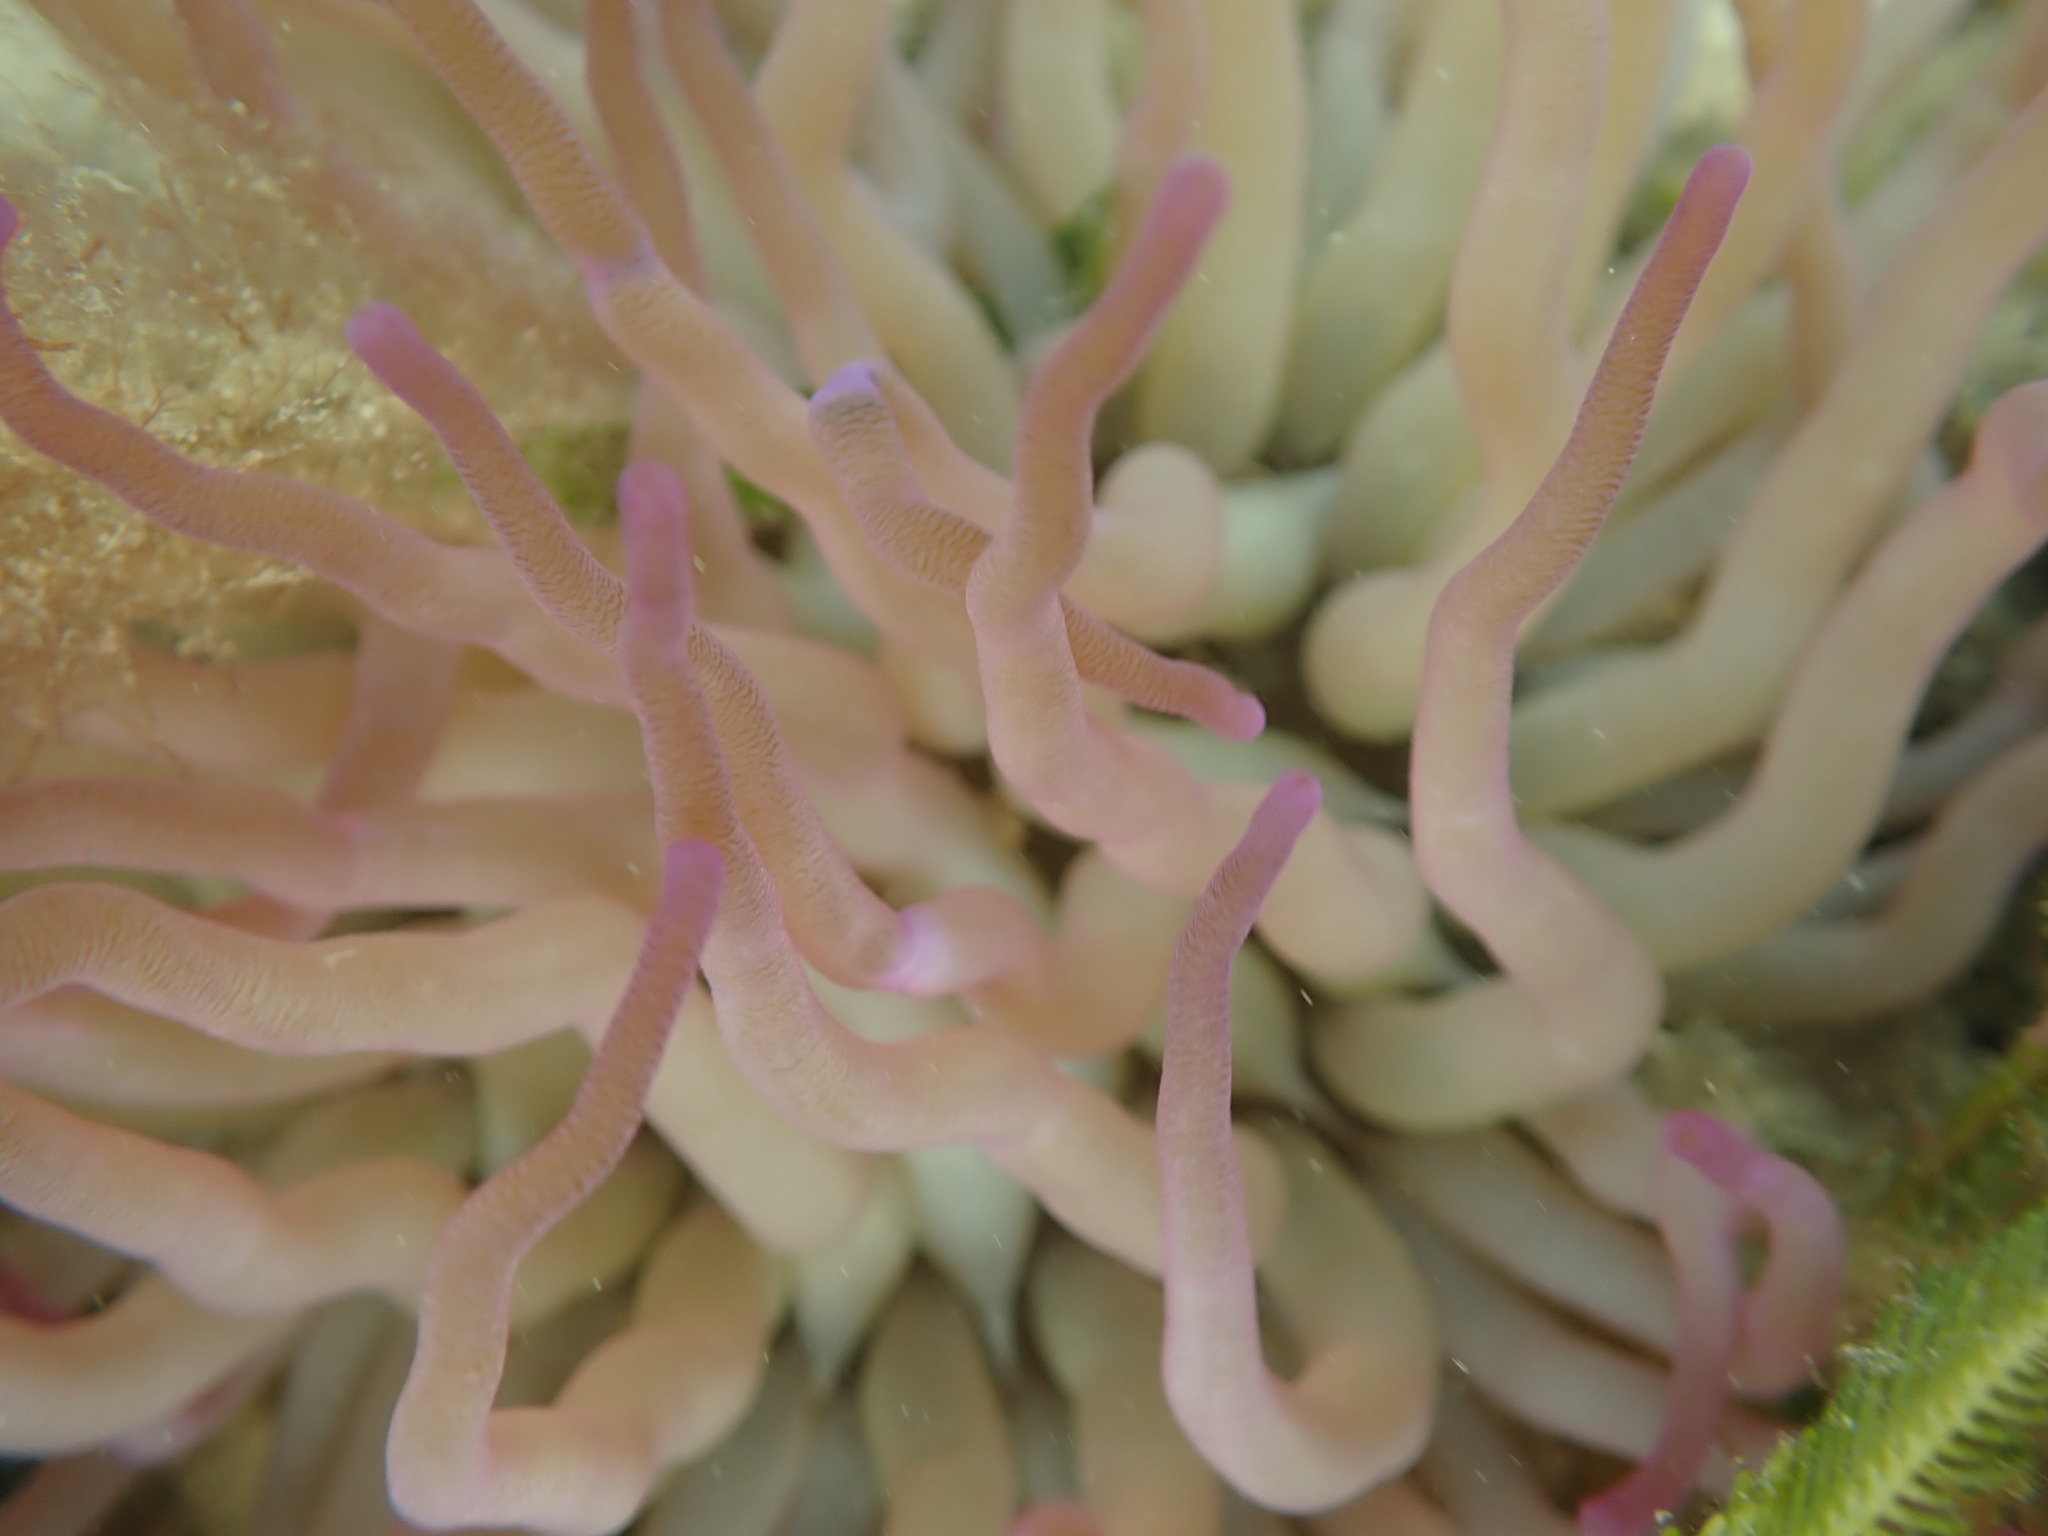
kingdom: Animalia
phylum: Cnidaria
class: Anthozoa
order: Actiniaria
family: Actiniidae
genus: Condylactis
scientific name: Condylactis gigantea
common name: Giant caribbean anemone
